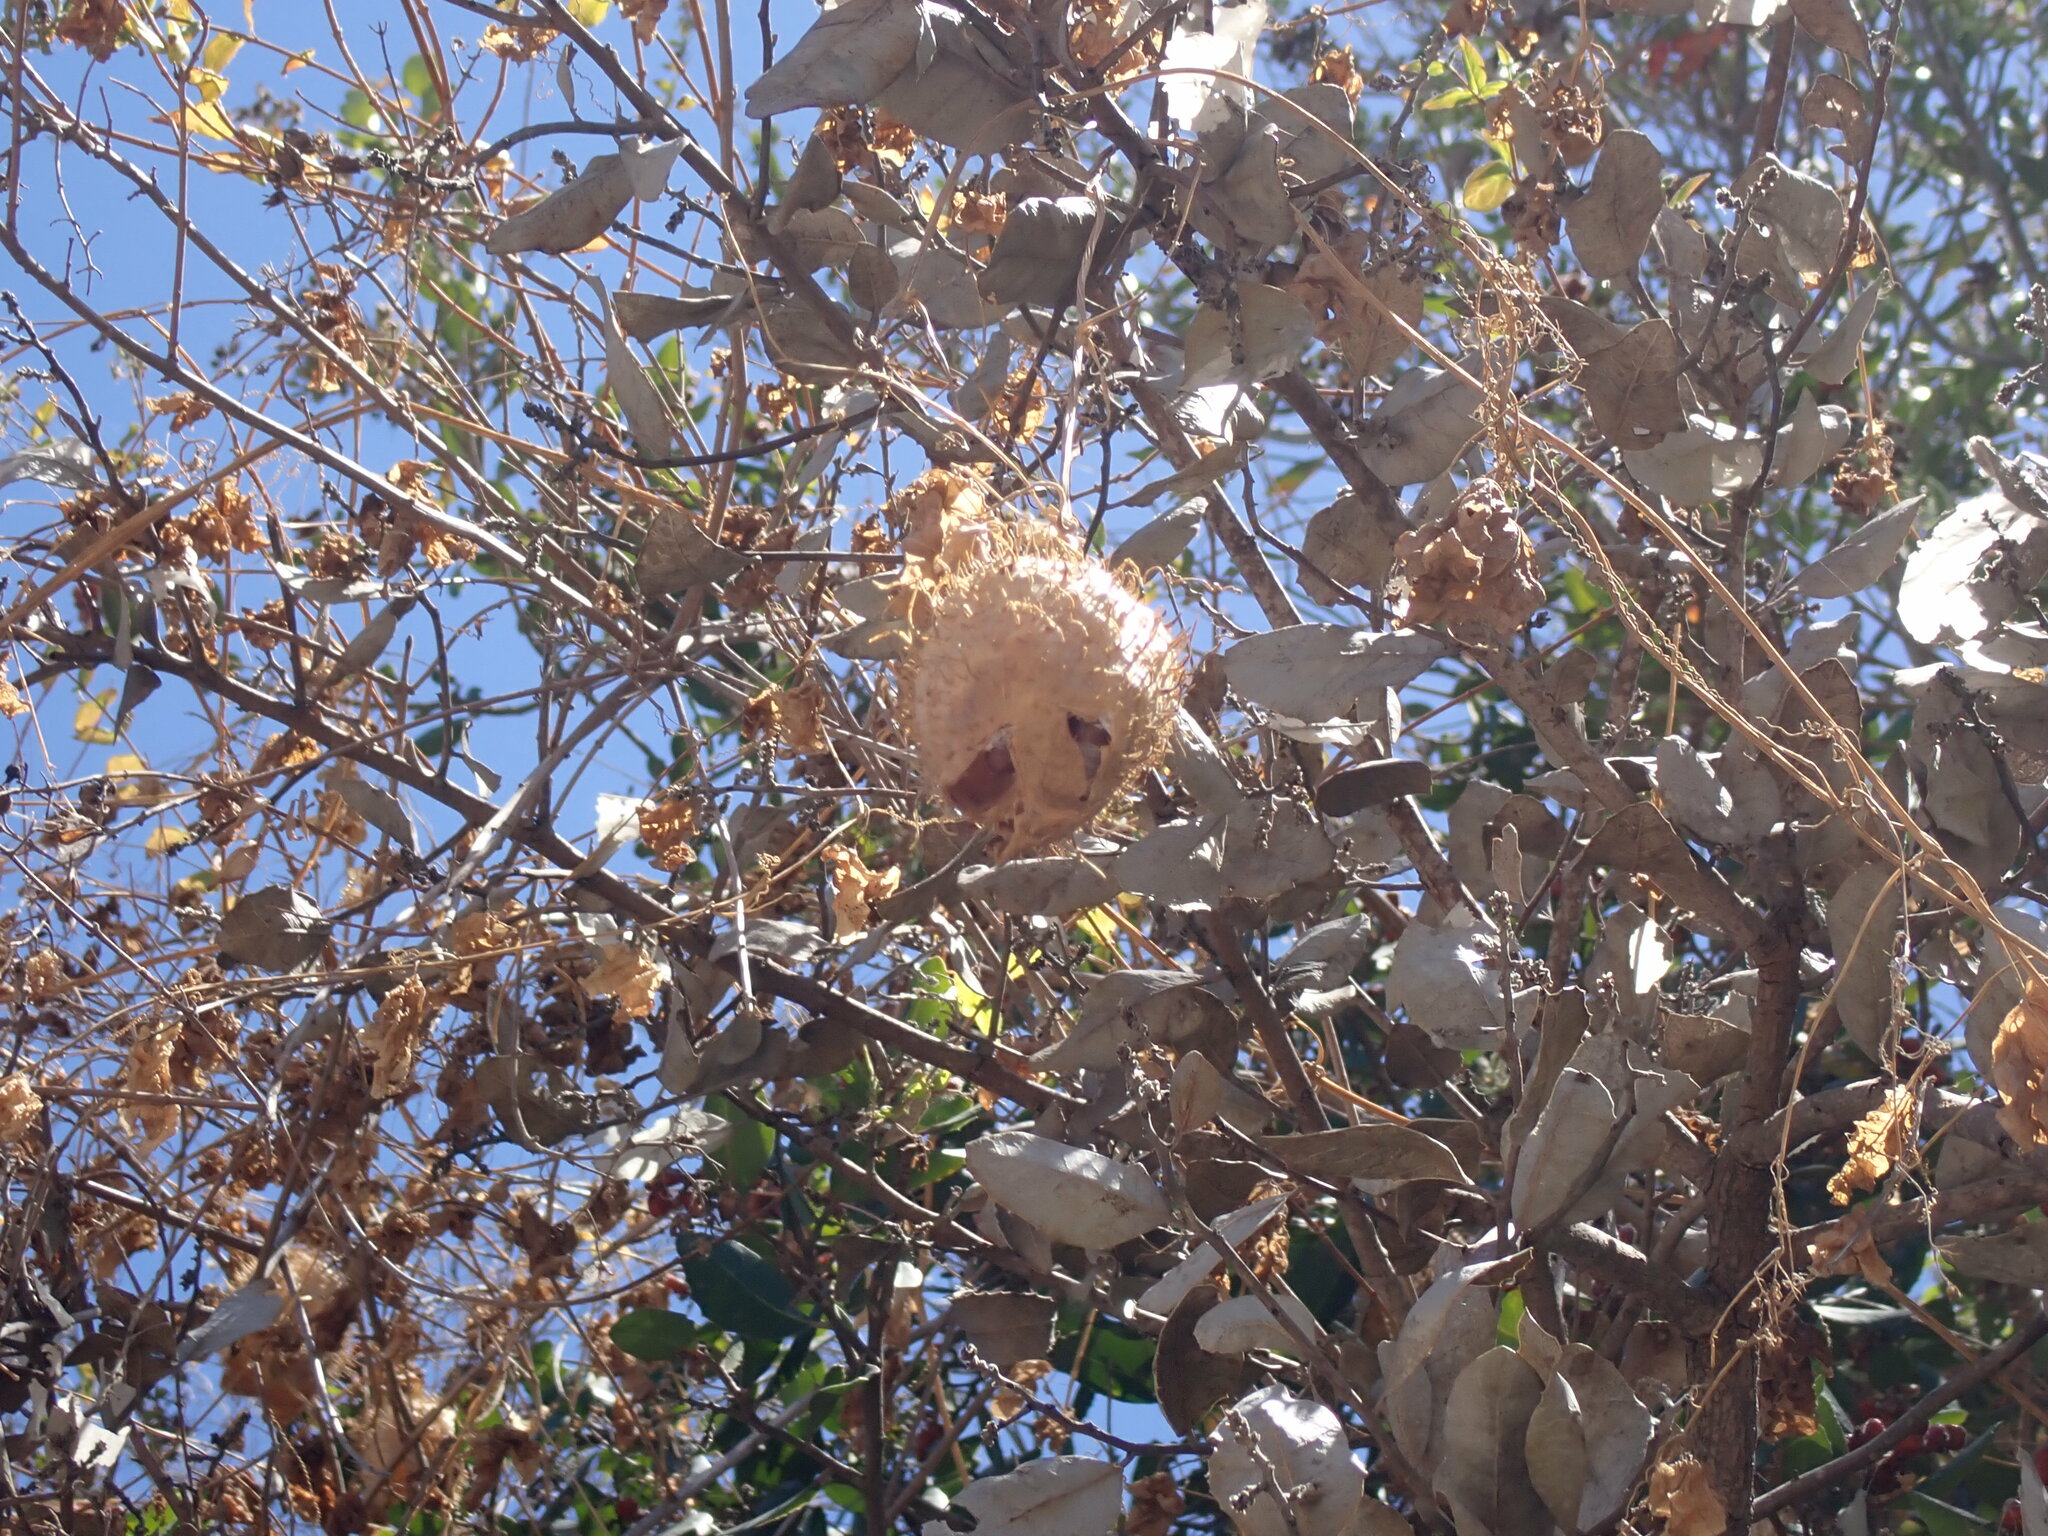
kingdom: Plantae
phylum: Tracheophyta
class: Magnoliopsida
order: Cucurbitales
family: Cucurbitaceae
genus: Marah
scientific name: Marah macrocarpa
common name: Cucamonga manroot
